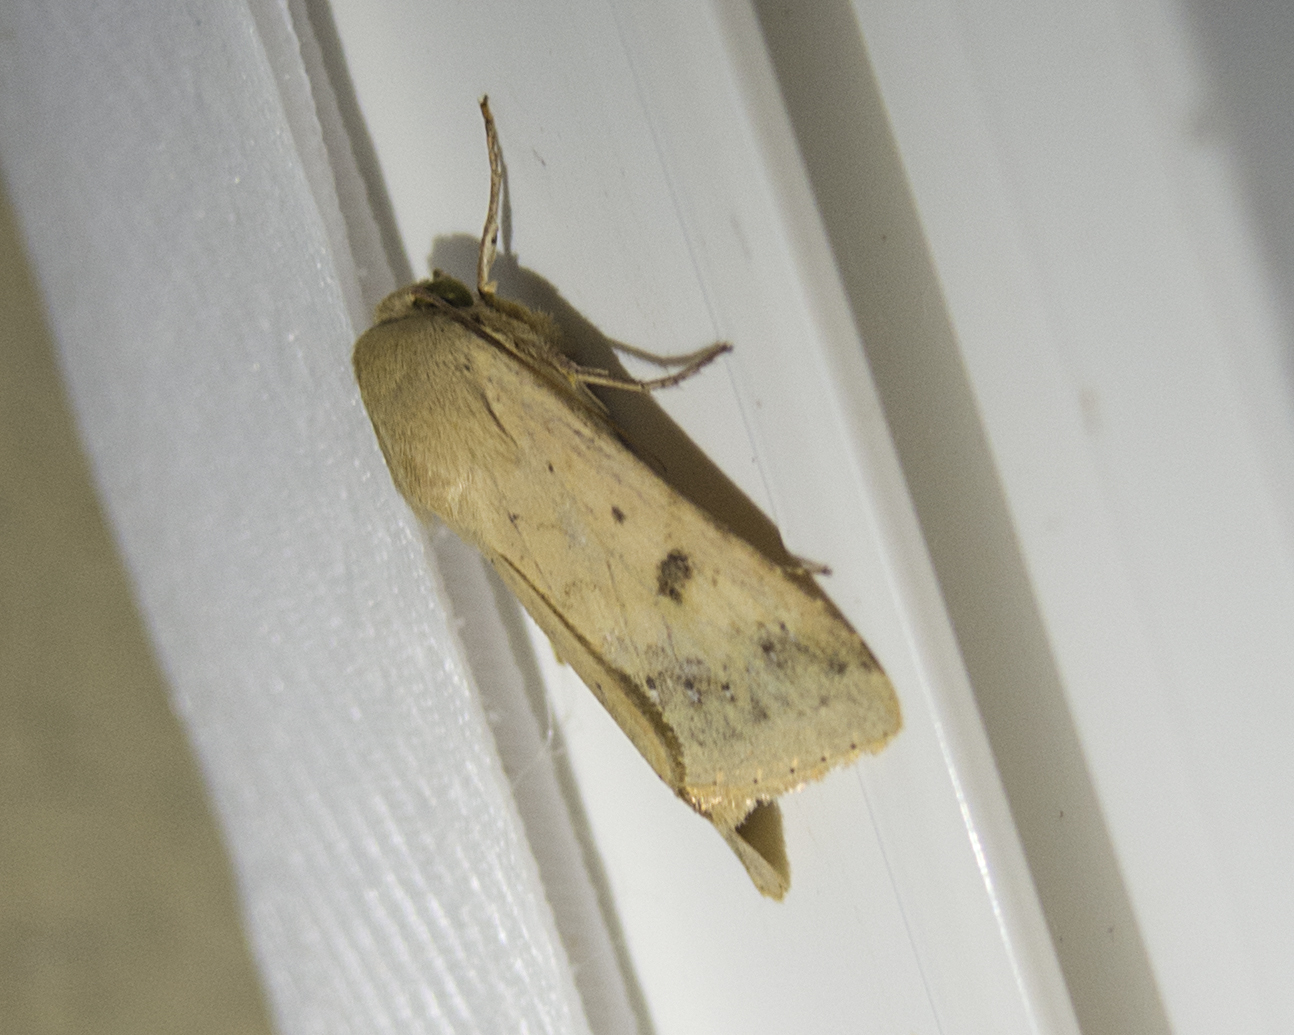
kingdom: Animalia
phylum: Arthropoda
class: Insecta
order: Lepidoptera
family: Noctuidae
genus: Helicoverpa
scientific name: Helicoverpa armigera
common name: Cotton bollworm
